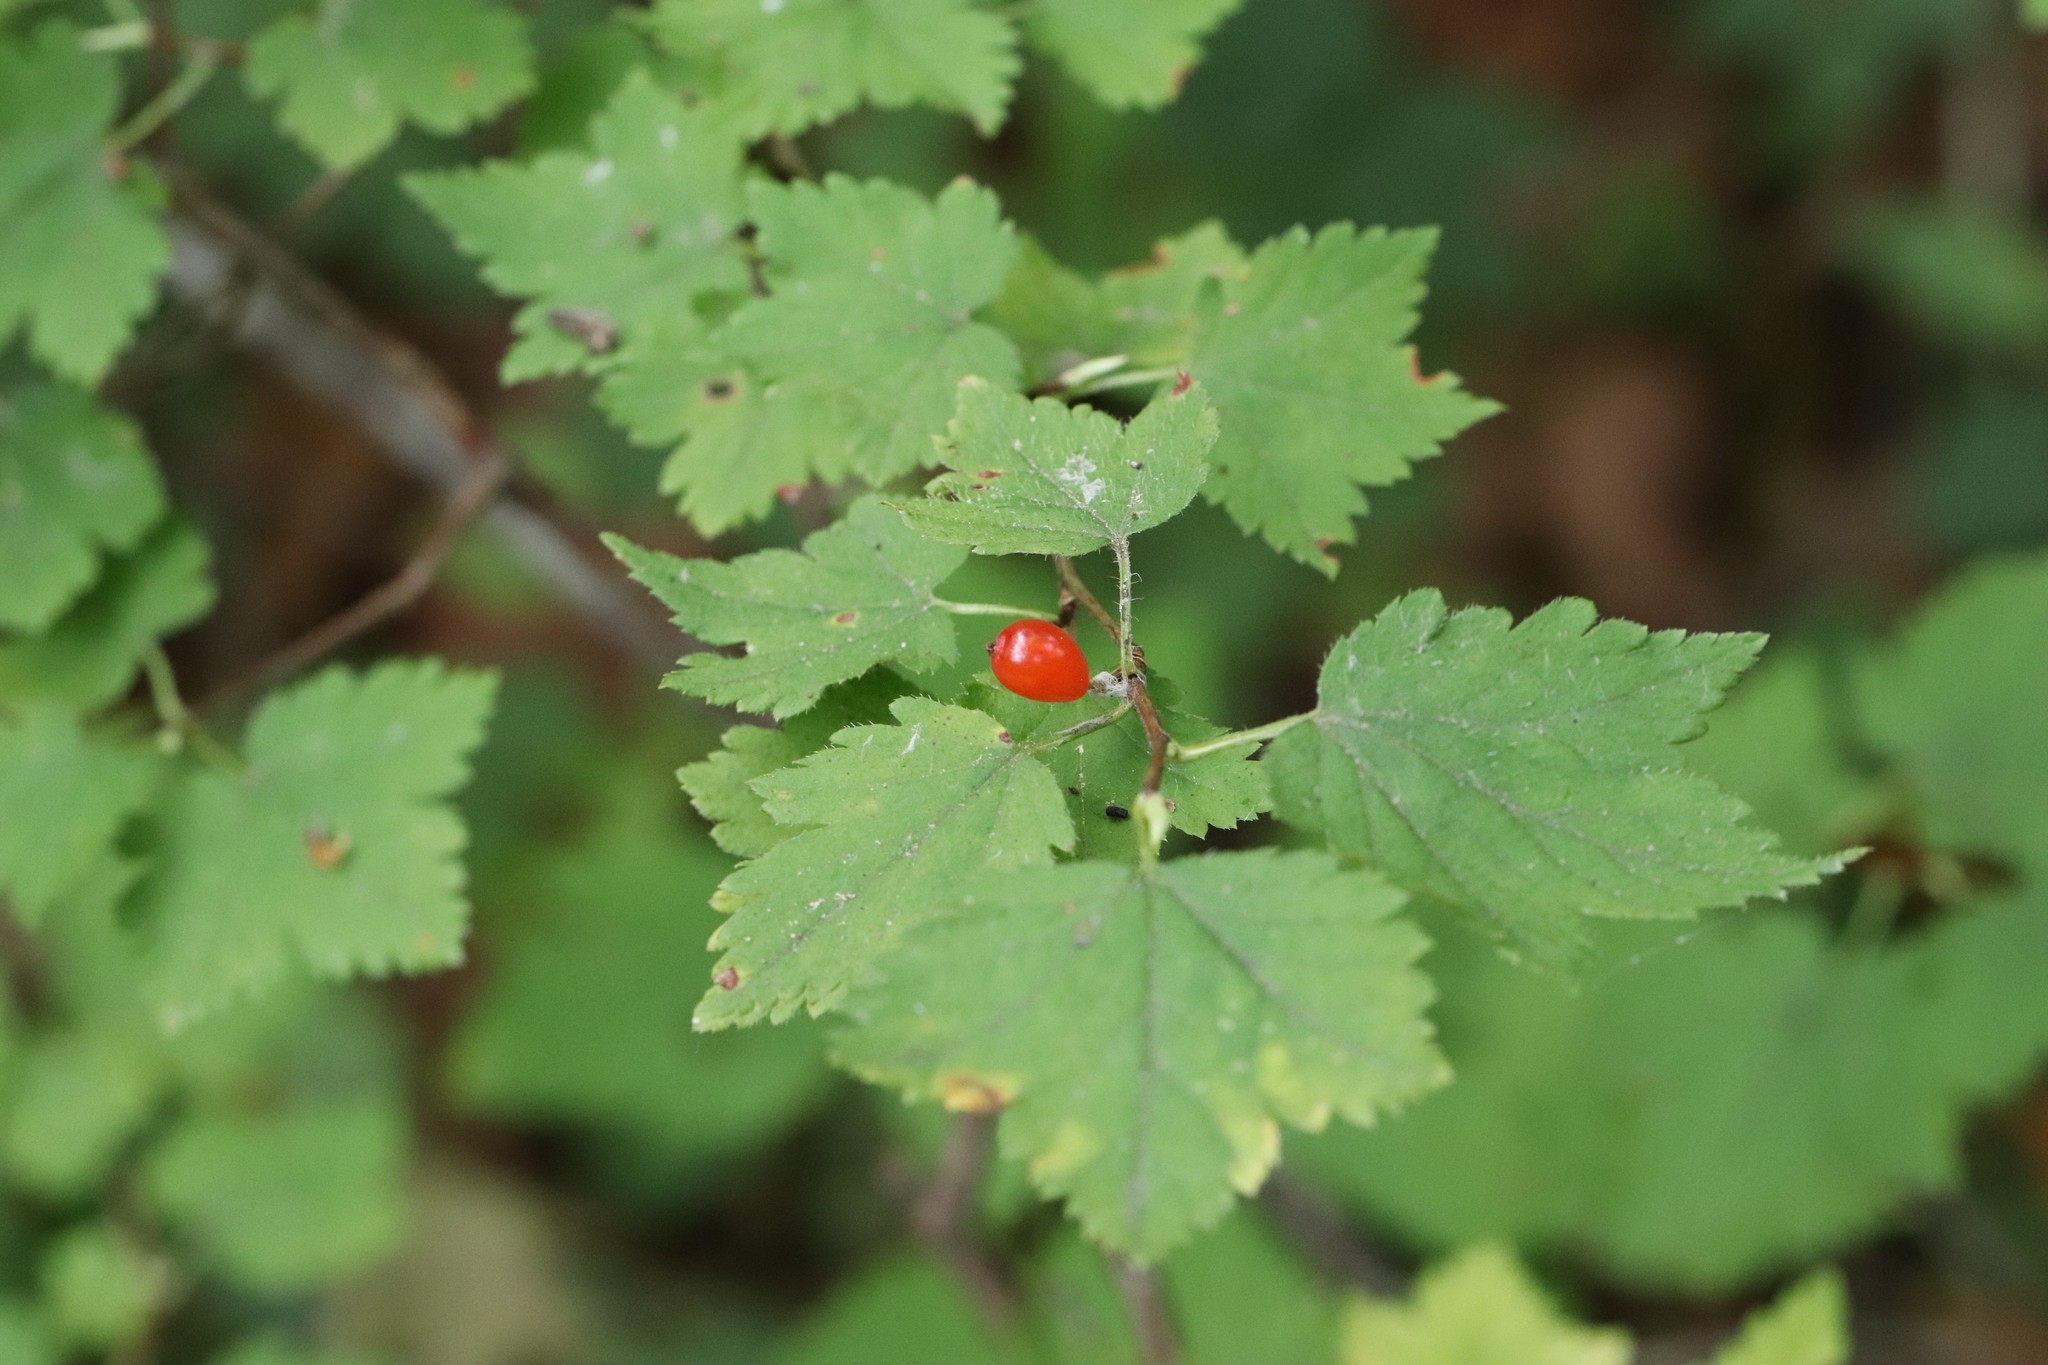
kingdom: Plantae
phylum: Tracheophyta
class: Magnoliopsida
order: Saxifragales
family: Grossulariaceae
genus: Ribes
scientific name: Ribes maximoviczianum
